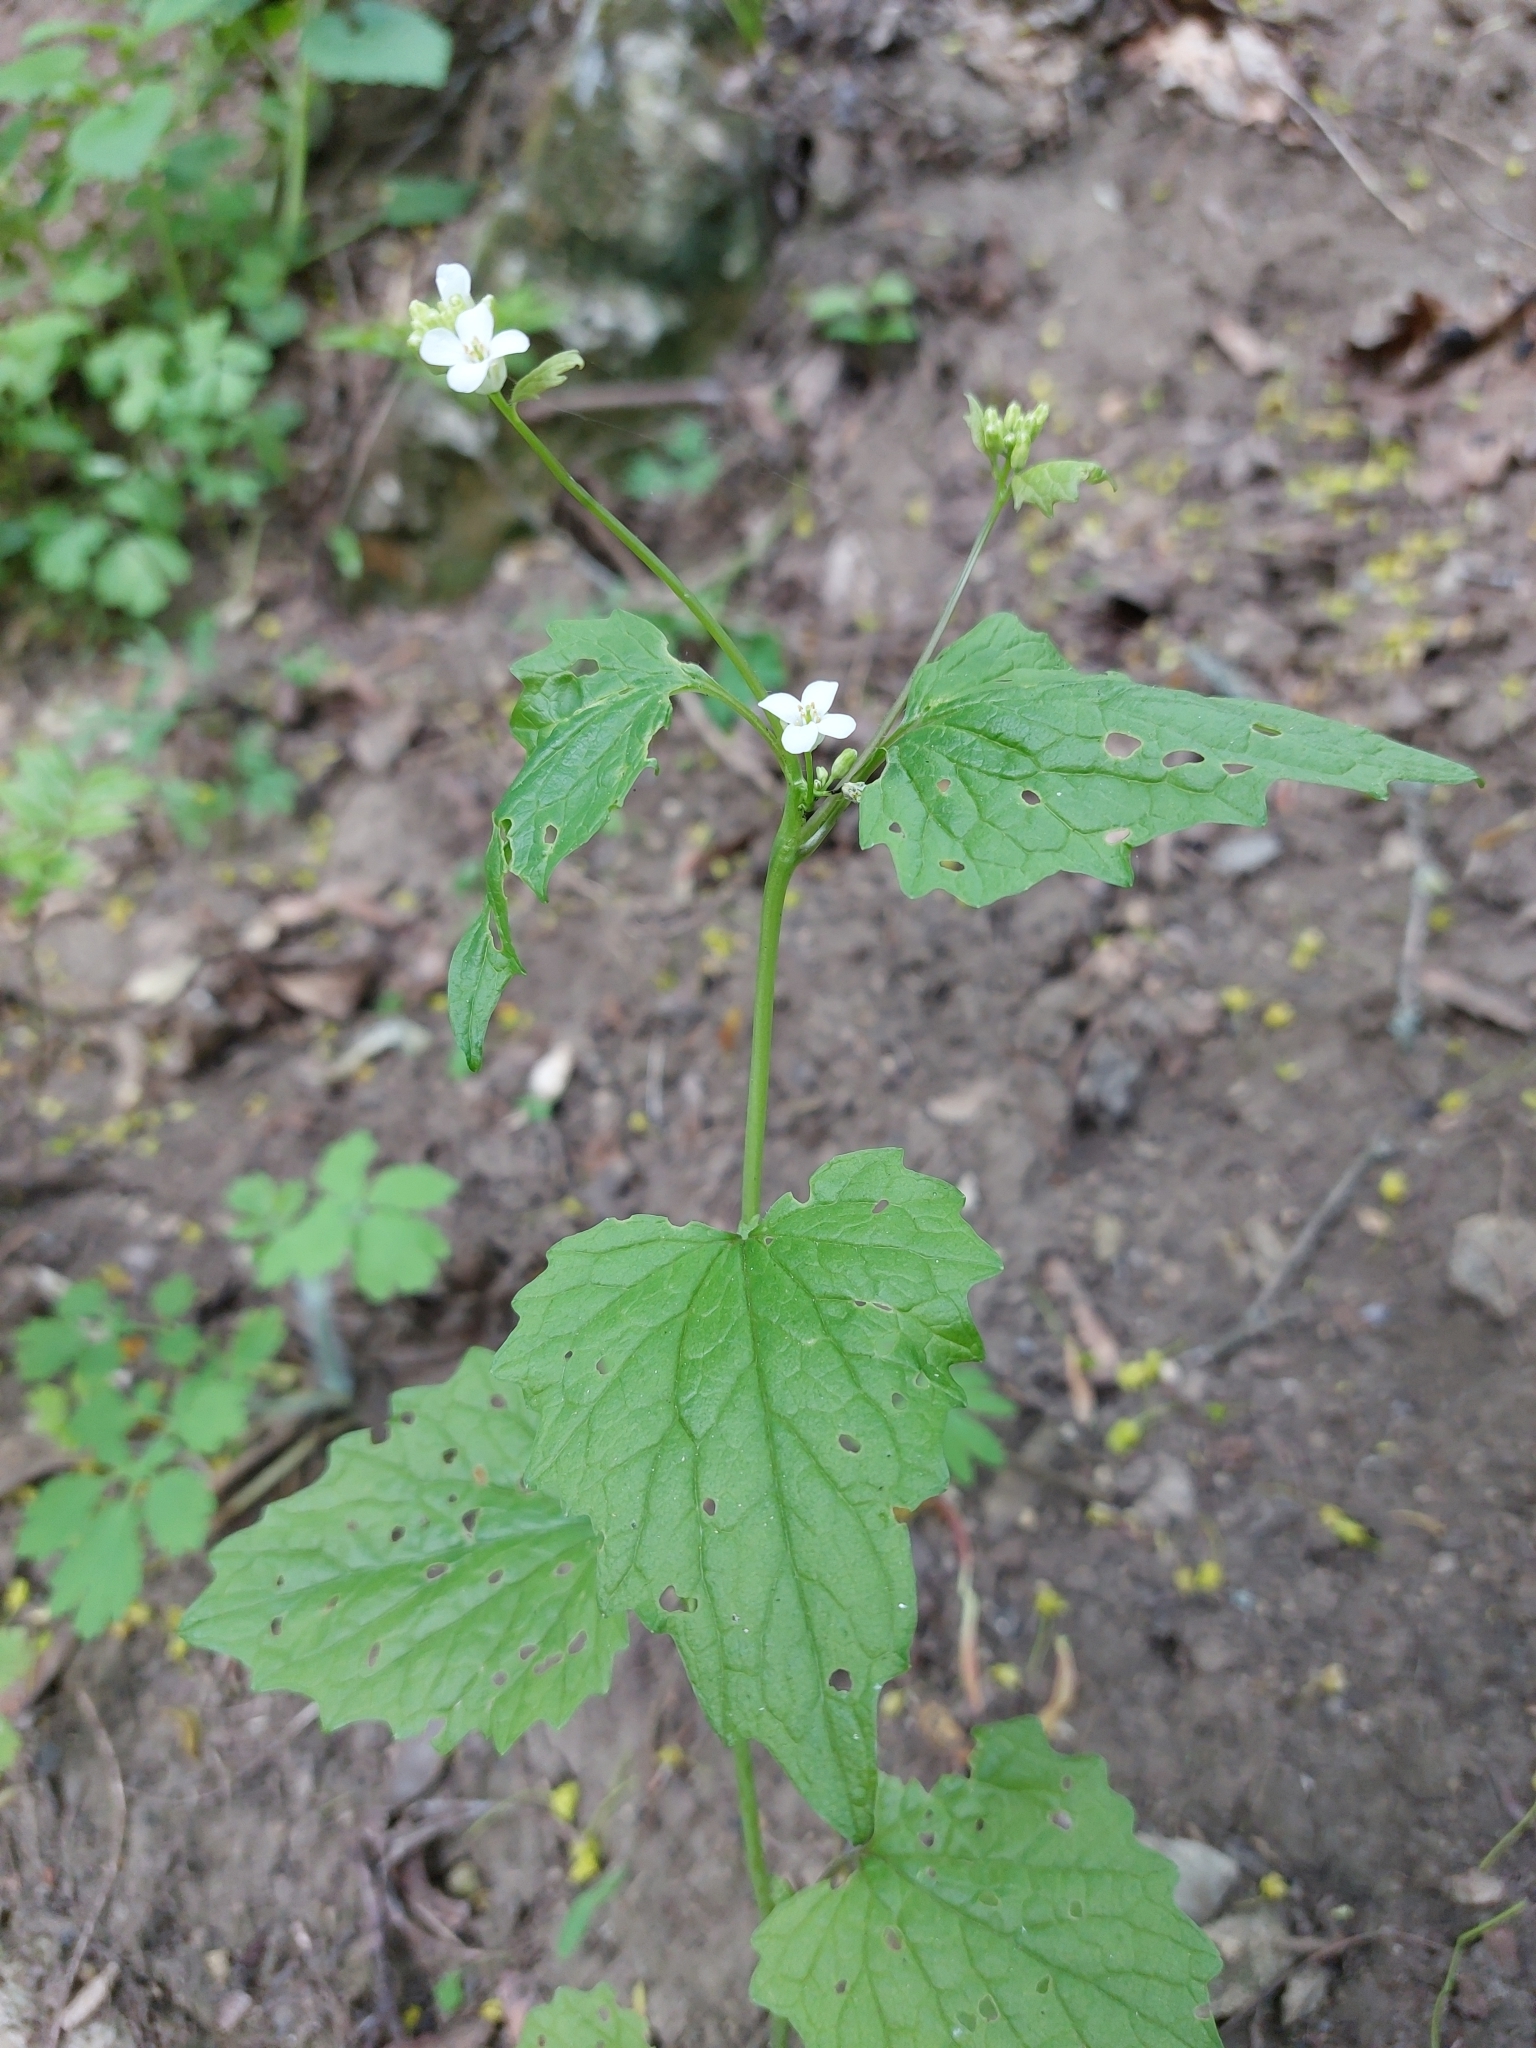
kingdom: Plantae
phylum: Tracheophyta
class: Magnoliopsida
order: Brassicales
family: Brassicaceae
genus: Alliaria
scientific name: Alliaria petiolata
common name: Garlic mustard
